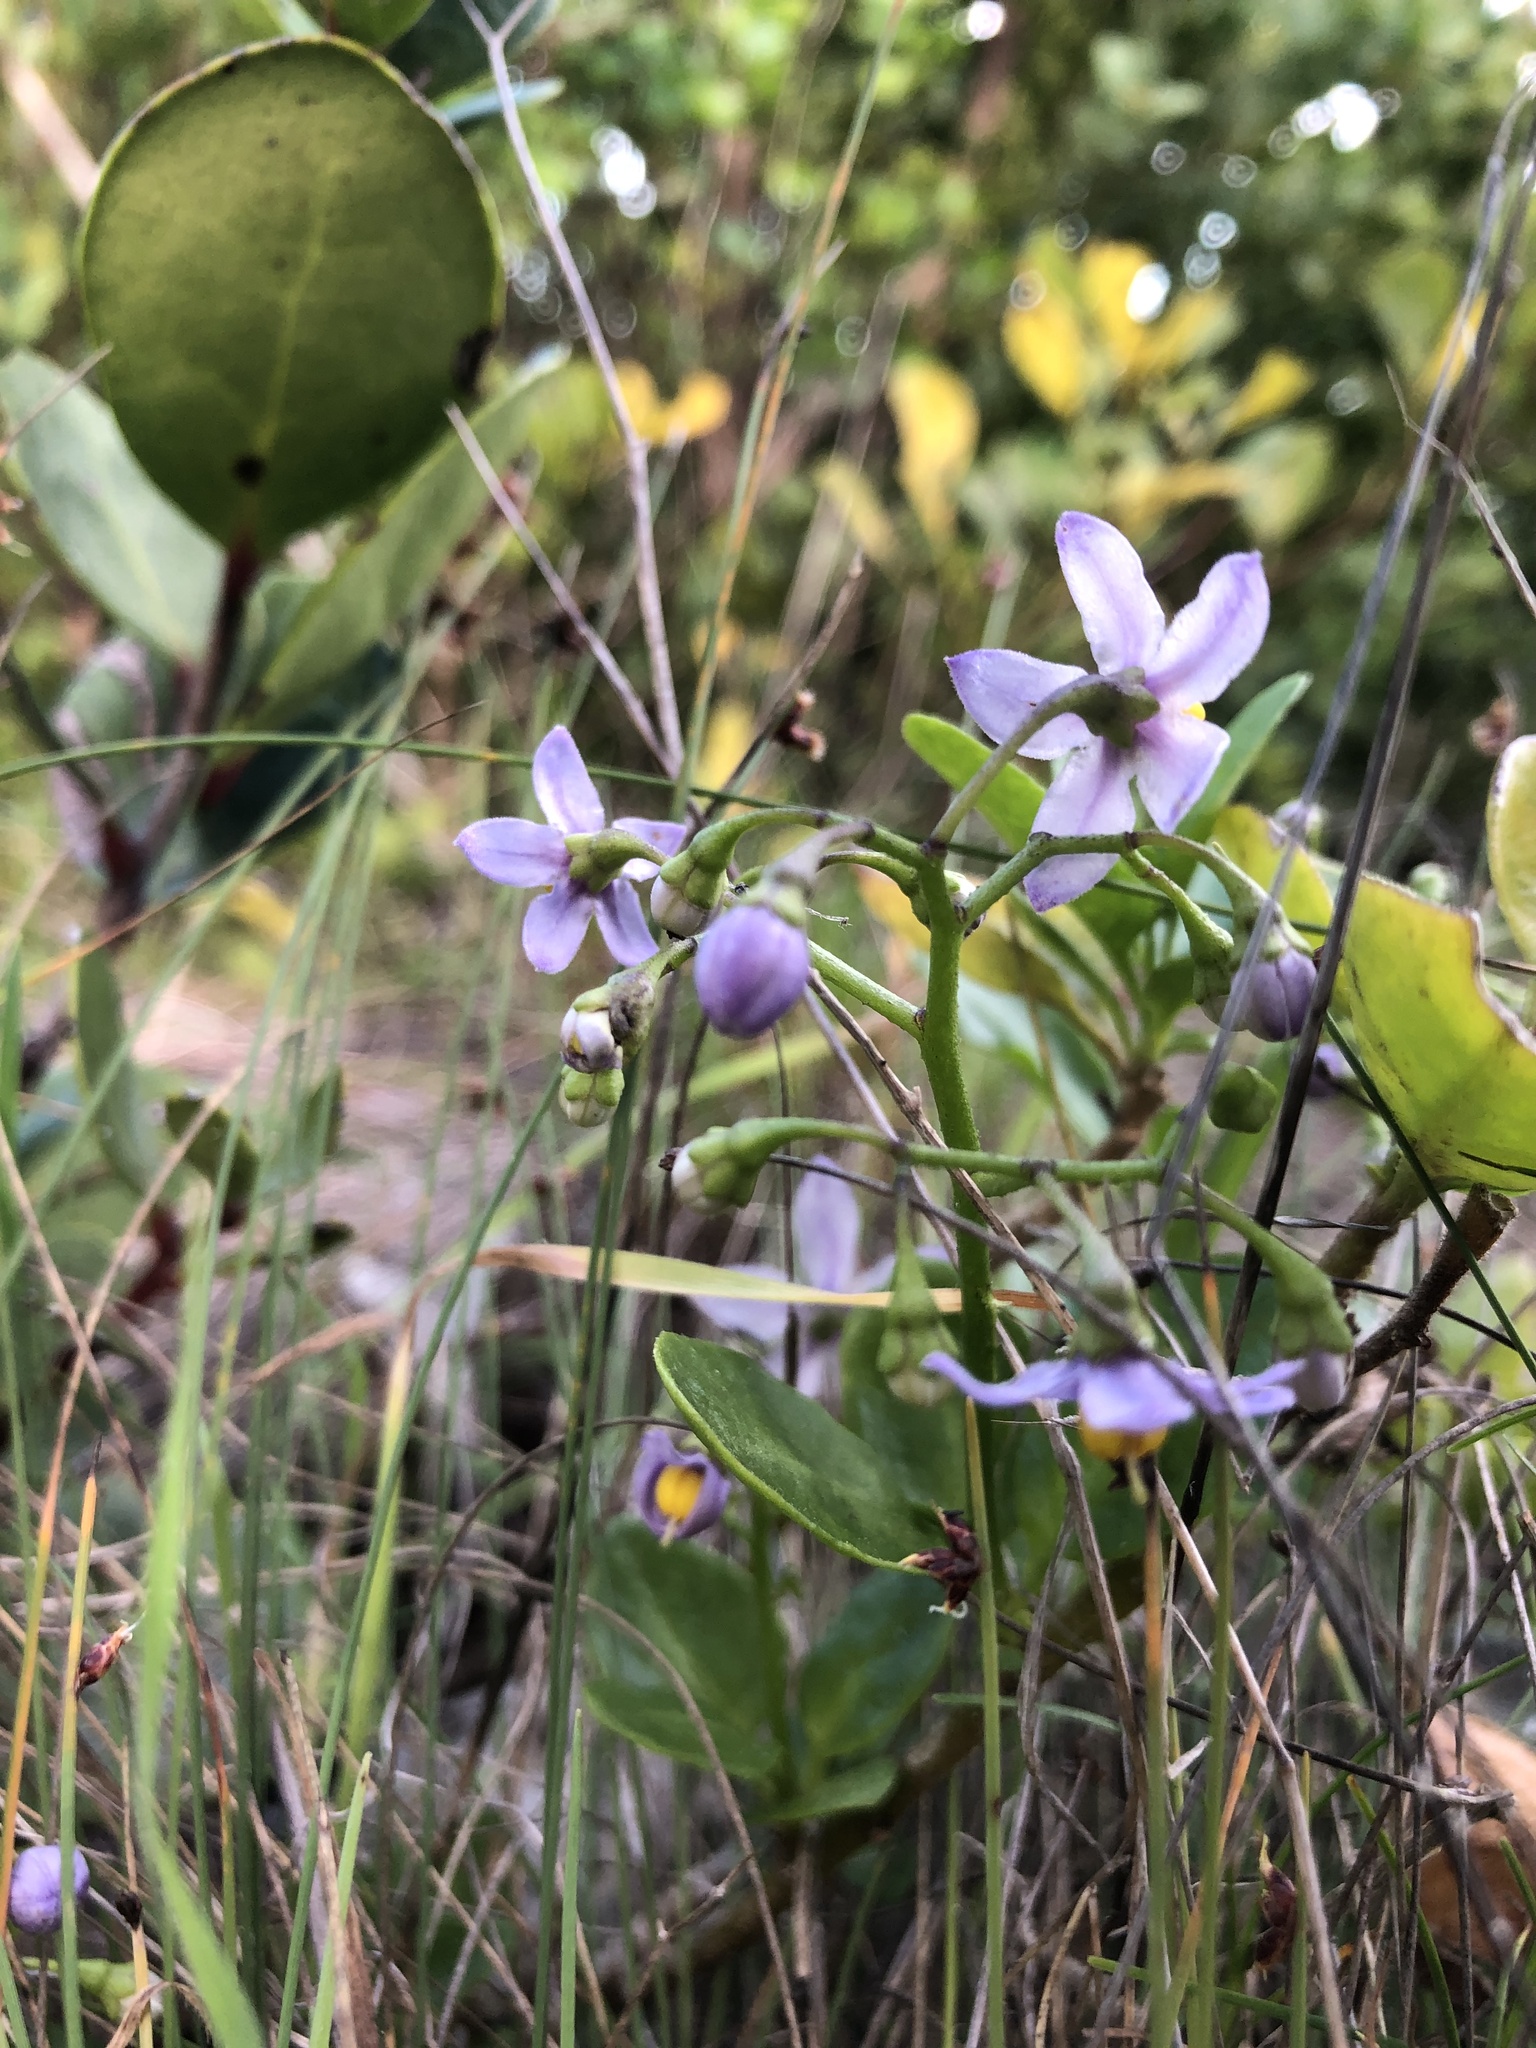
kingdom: Plantae
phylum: Tracheophyta
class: Magnoliopsida
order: Solanales
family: Solanaceae
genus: Solanum
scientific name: Solanum africanum
